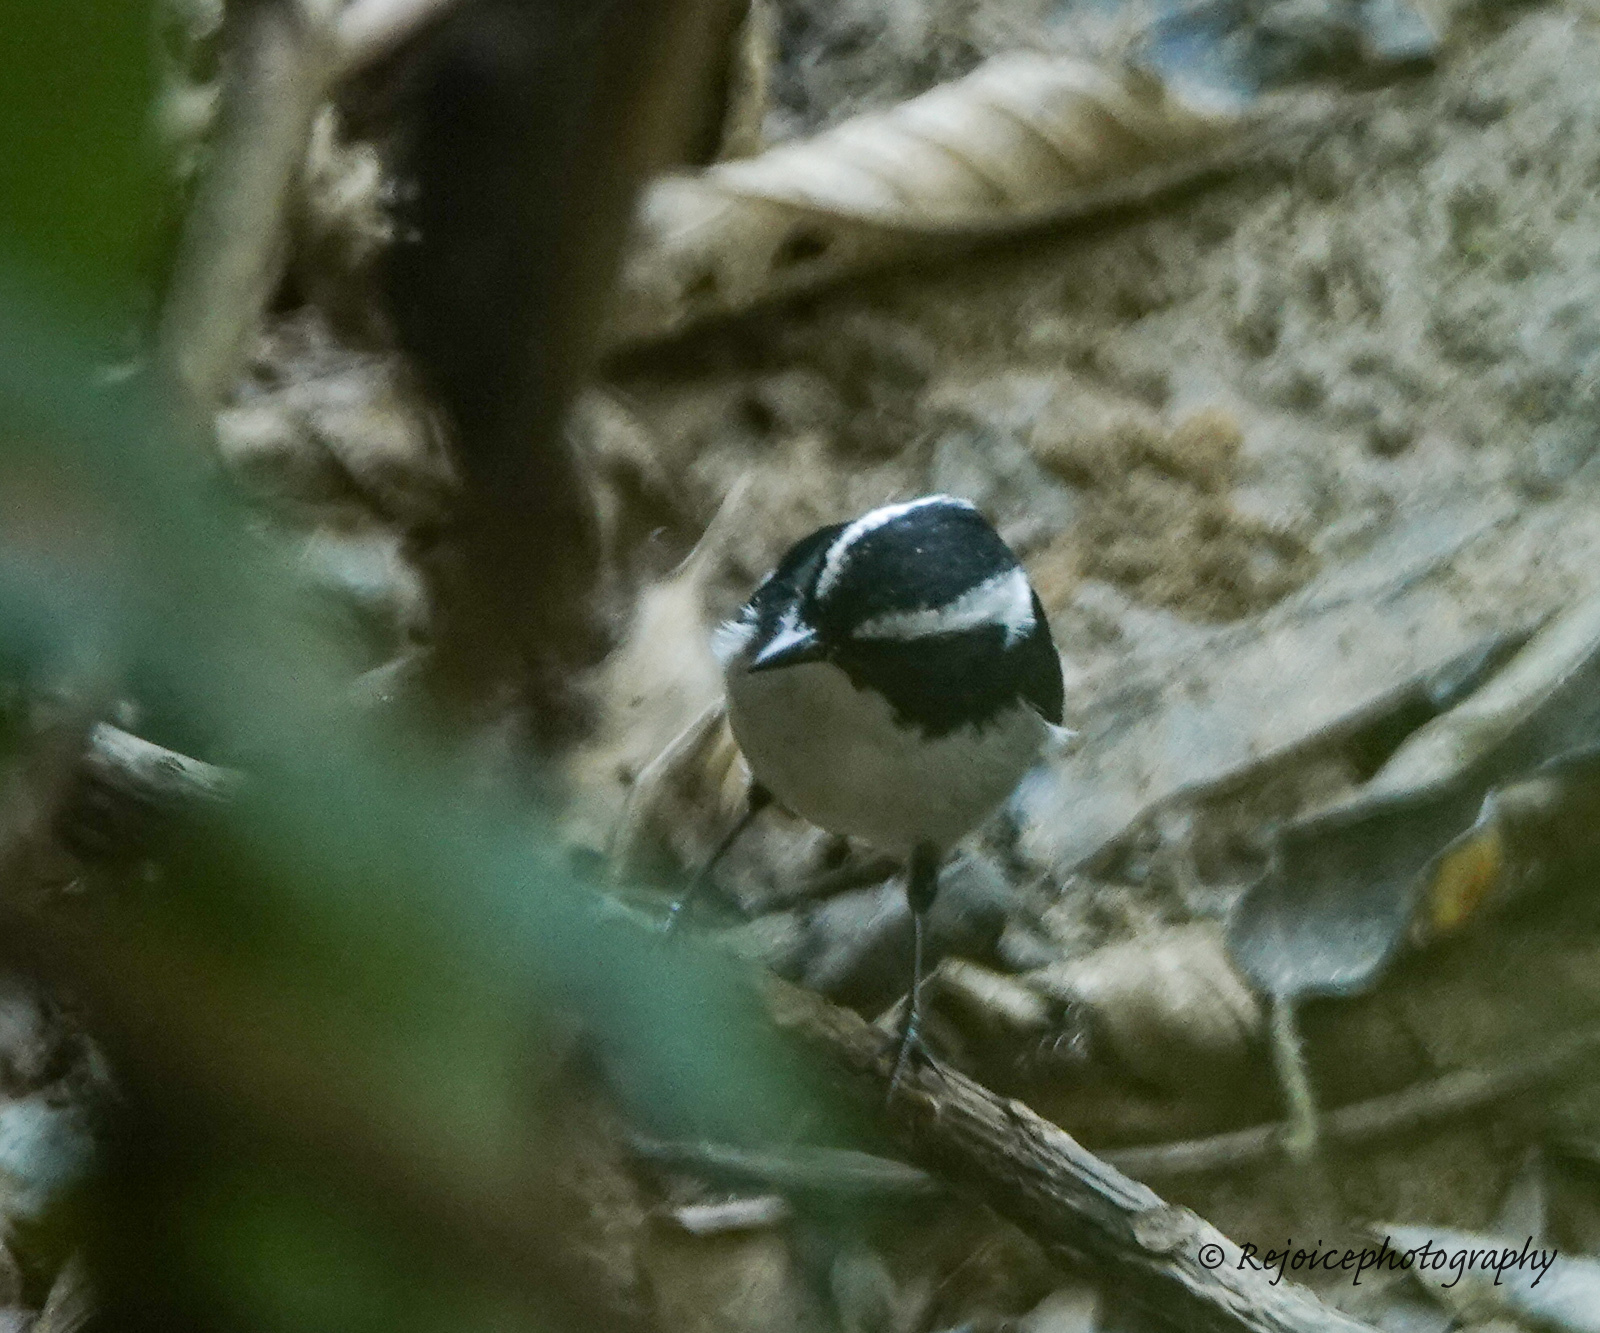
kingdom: Animalia
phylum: Chordata
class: Aves
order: Passeriformes
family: Muscicapidae
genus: Ficedula
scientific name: Ficedula westermanni
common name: Little pied flycatcher
